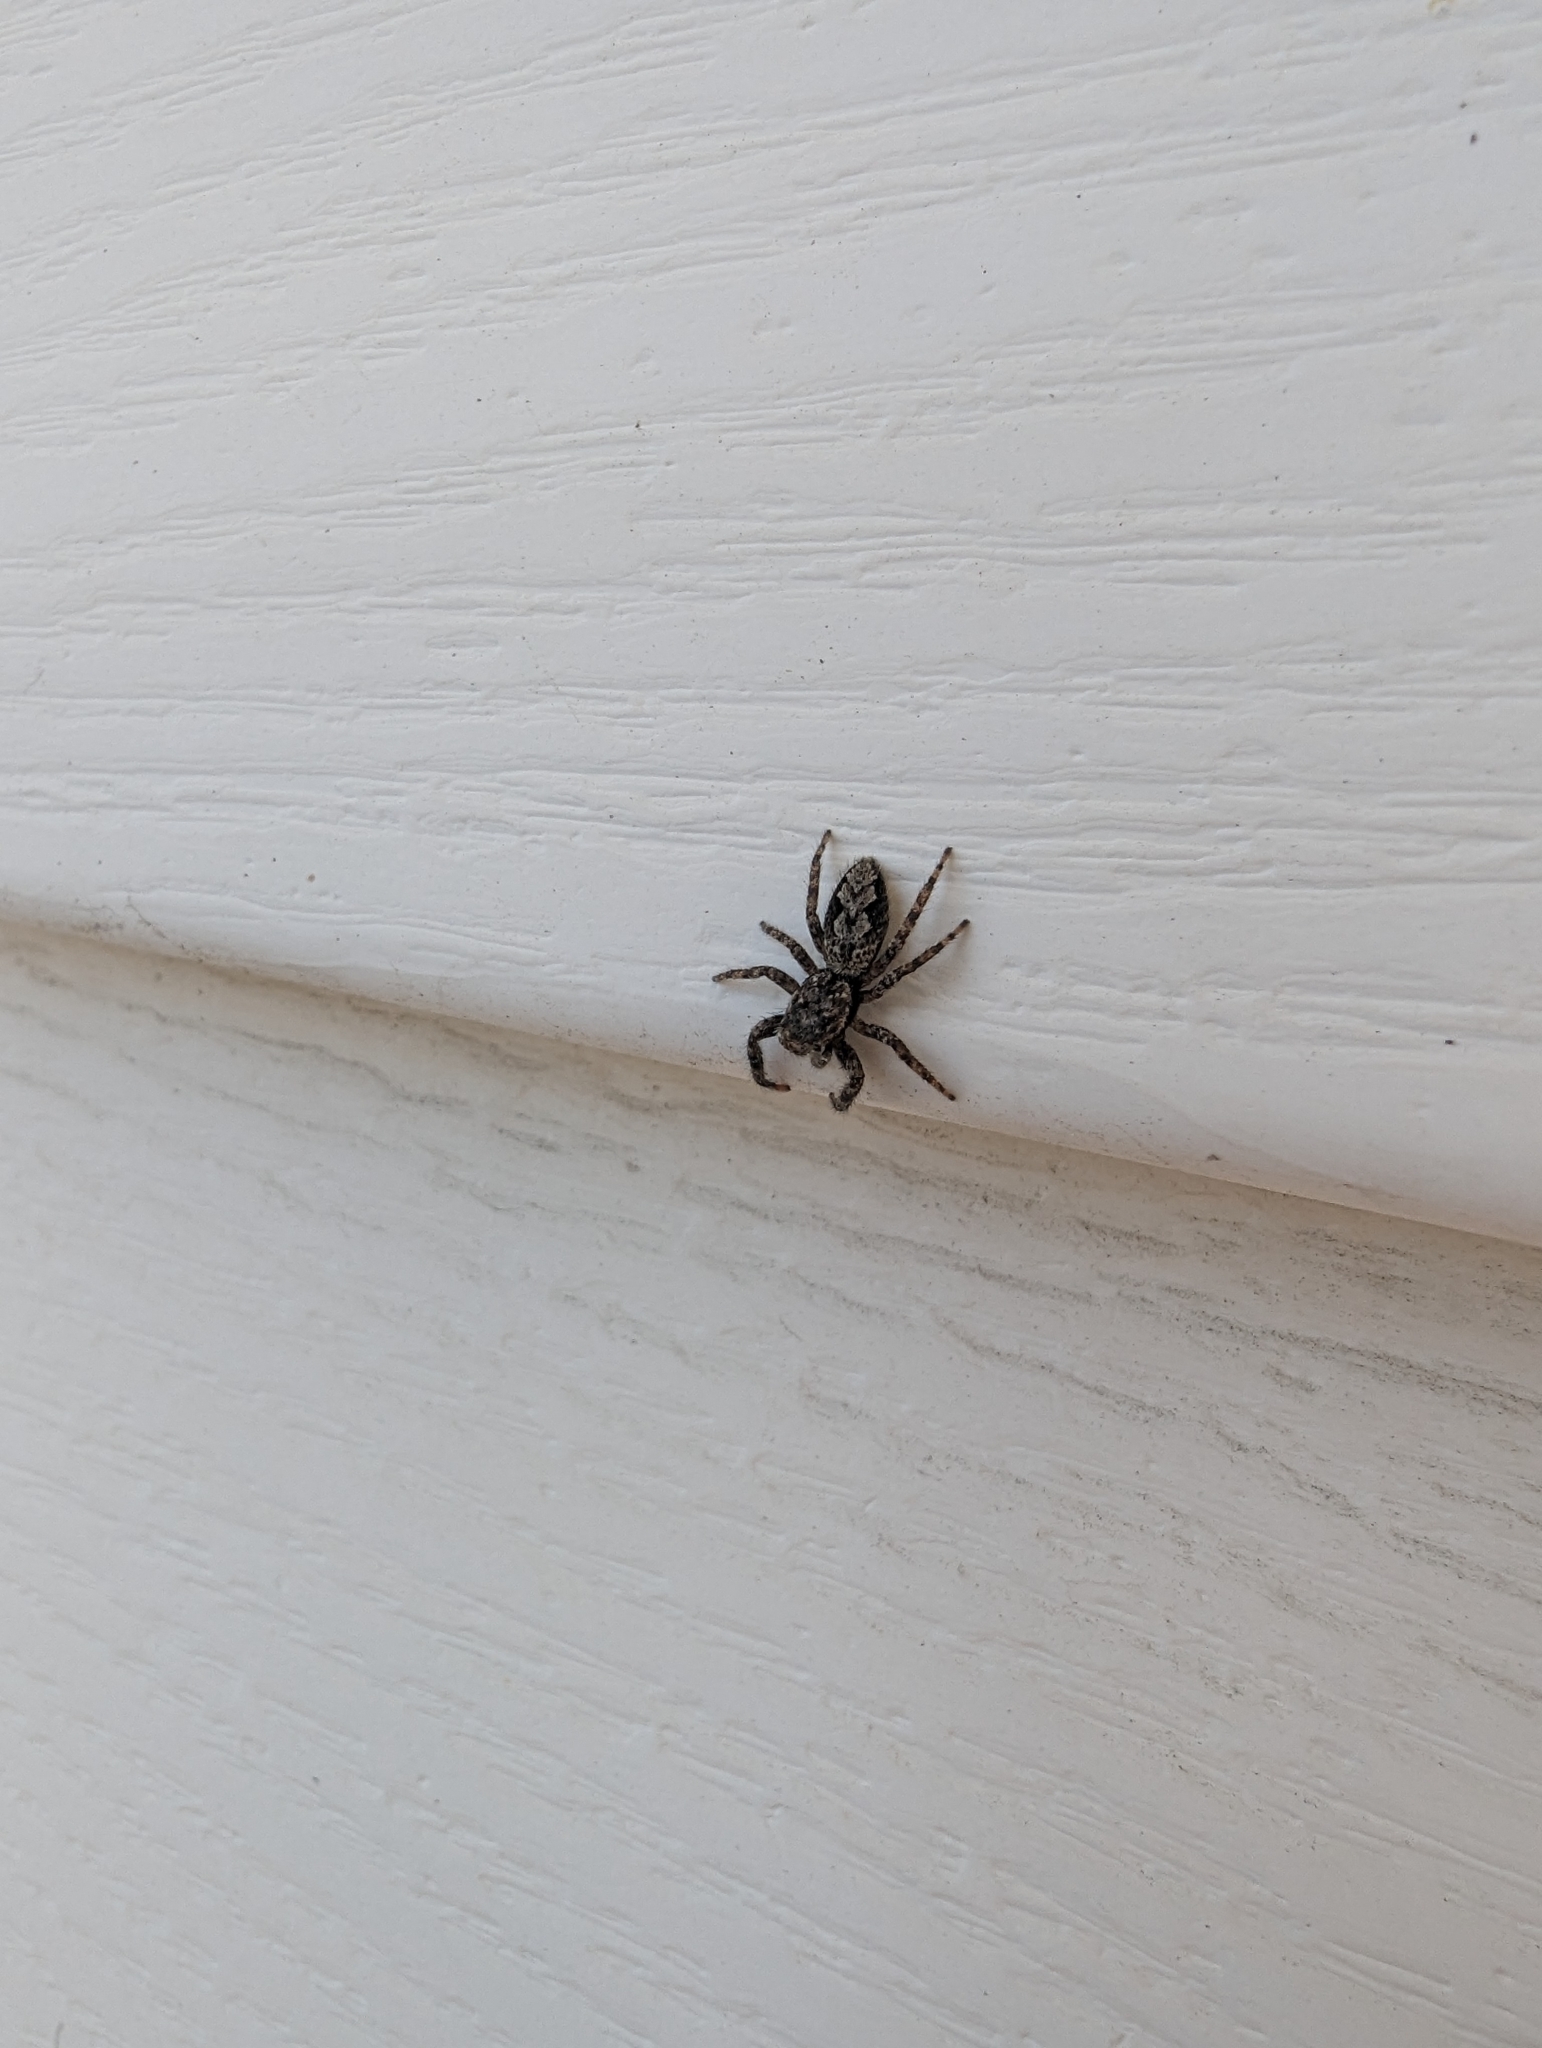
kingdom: Animalia
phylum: Arthropoda
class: Arachnida
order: Araneae
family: Salticidae
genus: Platycryptus
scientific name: Platycryptus undatus
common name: Tan jumping spider
